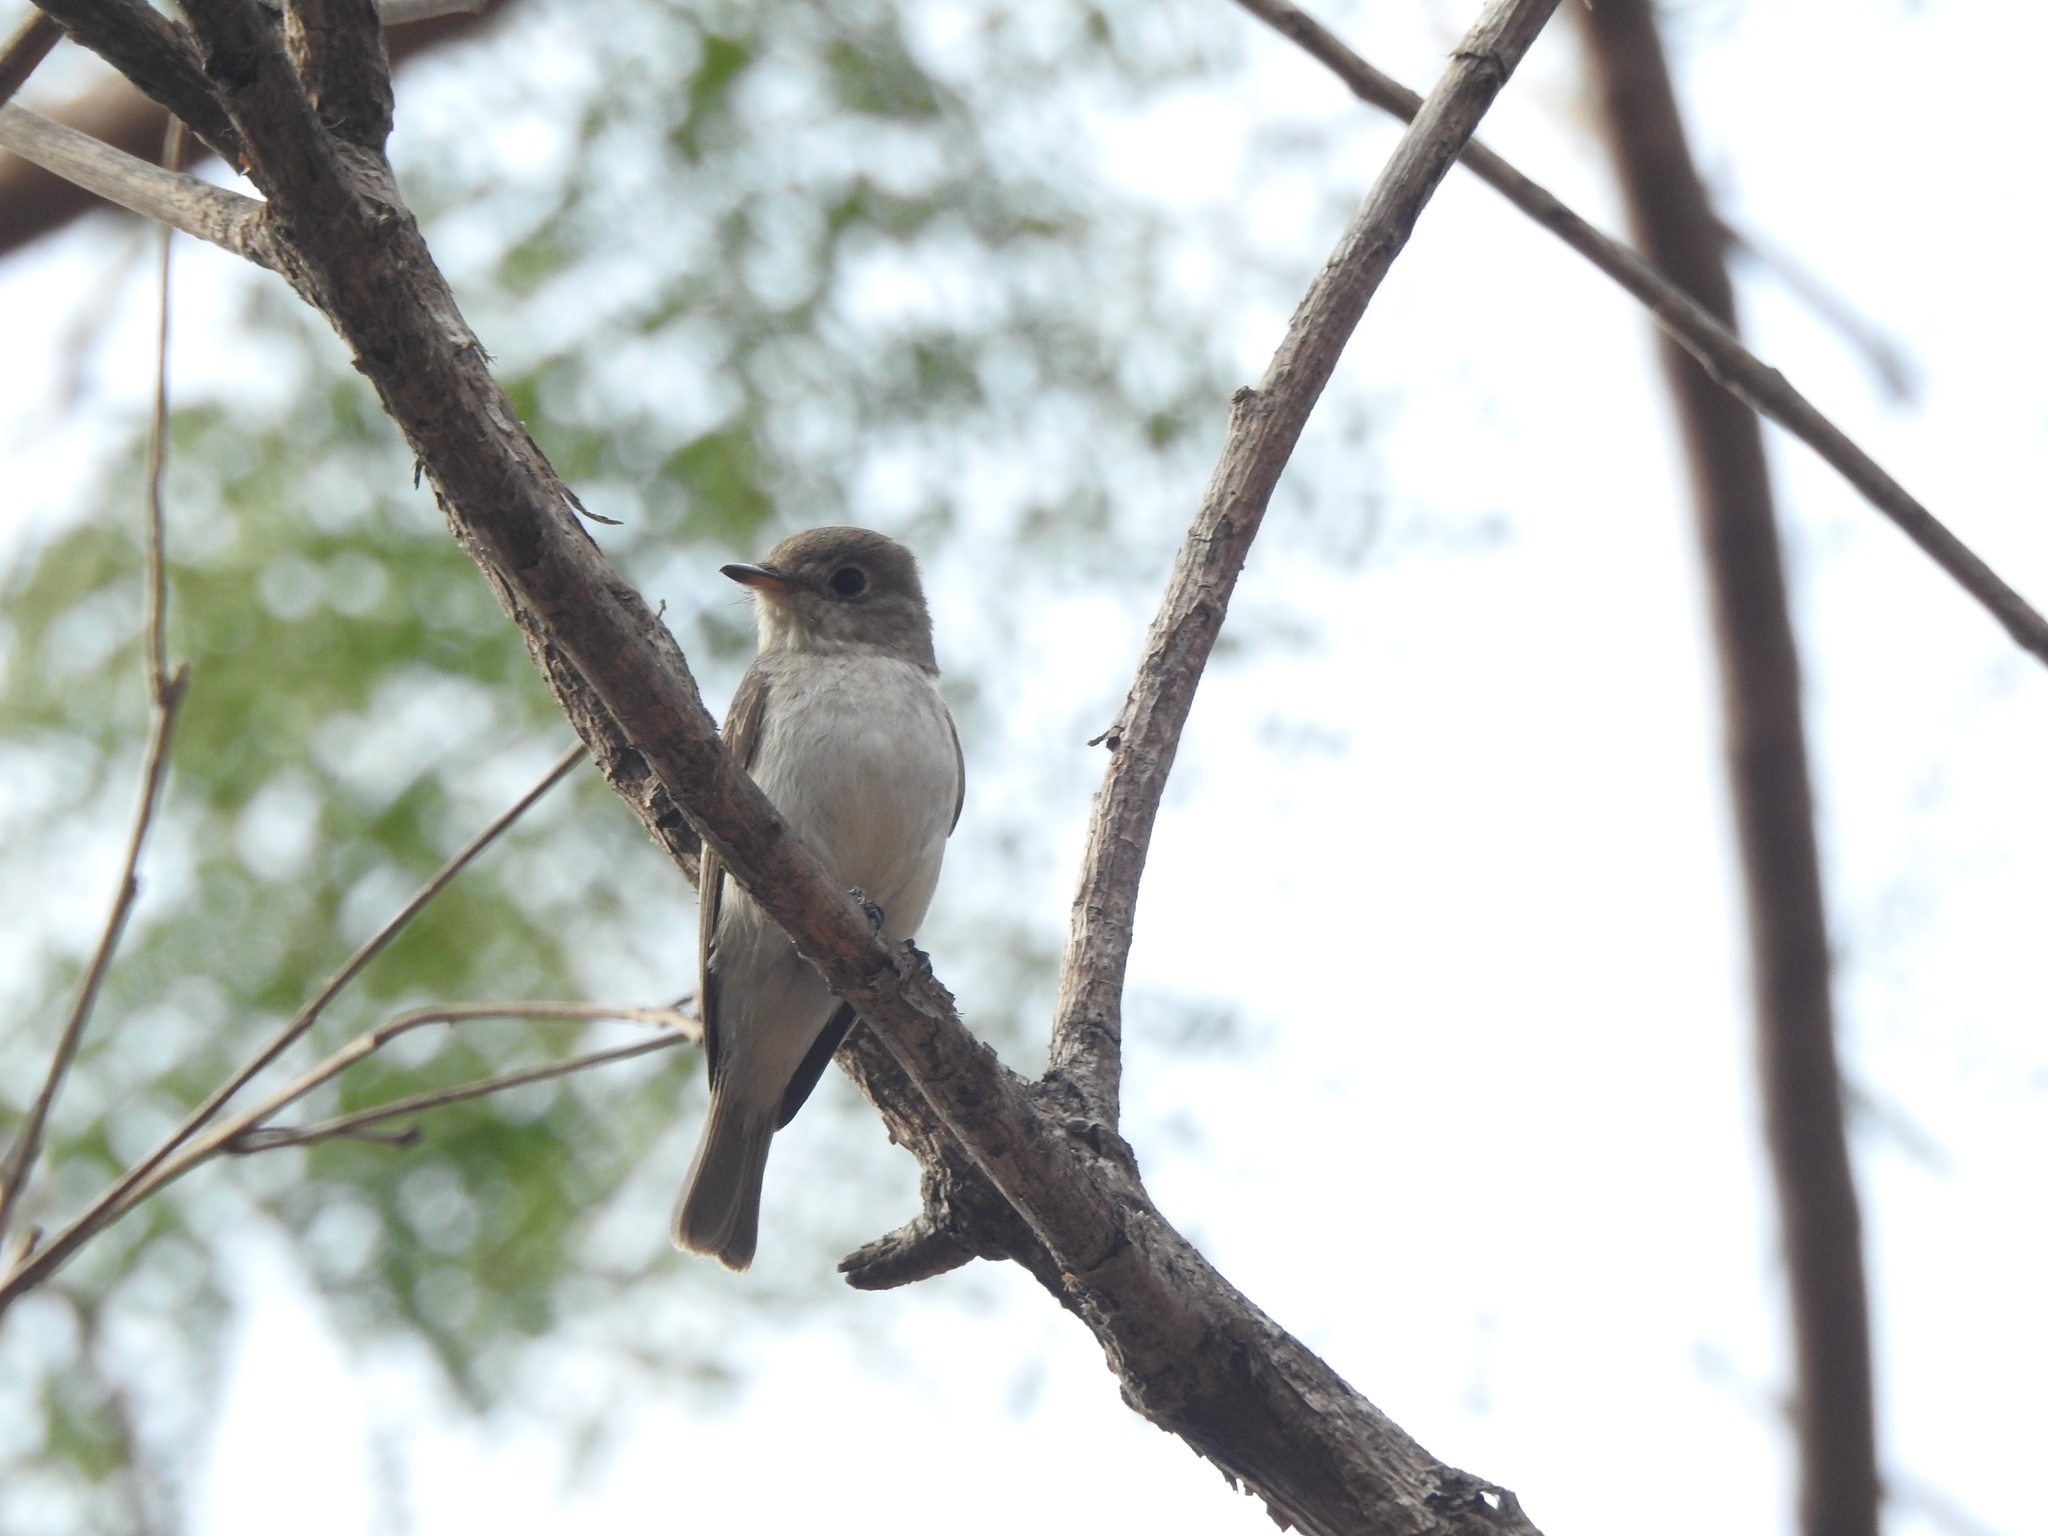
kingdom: Animalia
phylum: Chordata
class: Aves
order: Passeriformes
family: Muscicapidae
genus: Muscicapa
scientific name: Muscicapa latirostris
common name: Asian brown flycatcher
